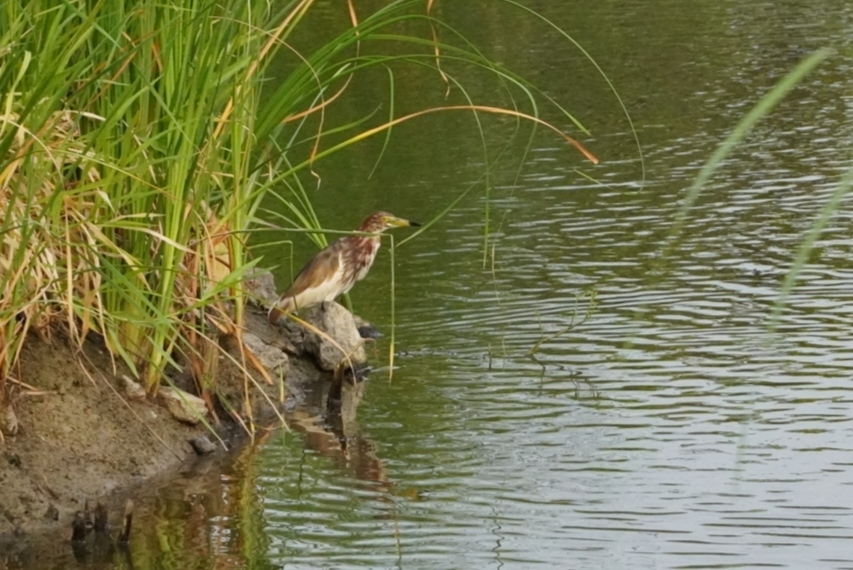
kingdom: Animalia
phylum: Chordata
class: Aves
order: Pelecaniformes
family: Ardeidae
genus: Ardeola
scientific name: Ardeola bacchus
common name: Chinese pond heron
